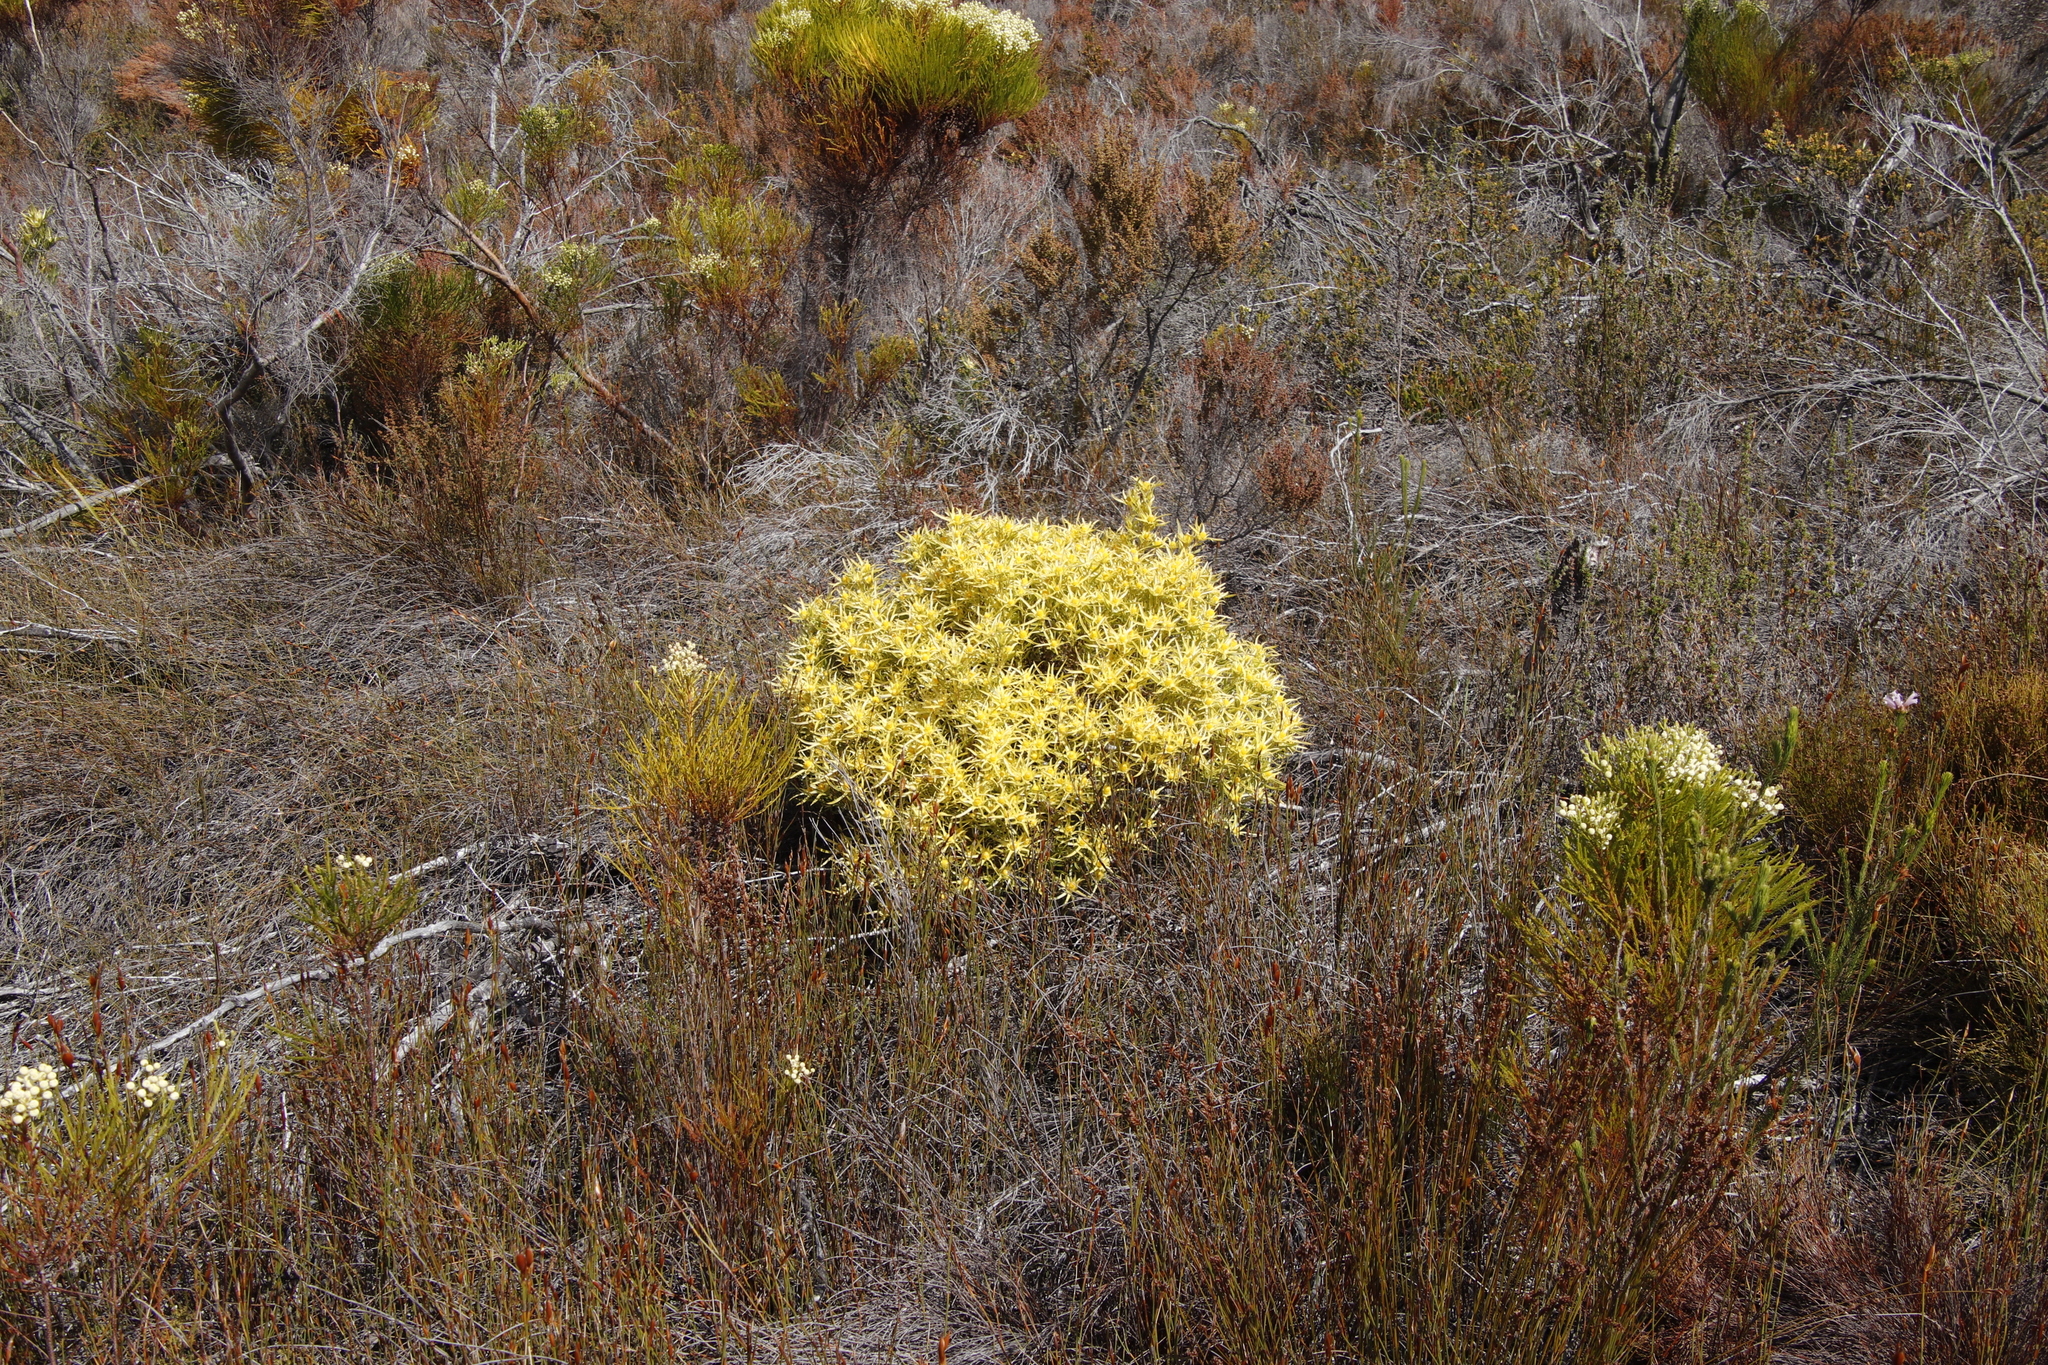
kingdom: Plantae
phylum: Tracheophyta
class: Magnoliopsida
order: Proteales
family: Proteaceae
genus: Leucadendron
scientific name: Leucadendron xanthoconus
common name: Sickle-leaf conebush
